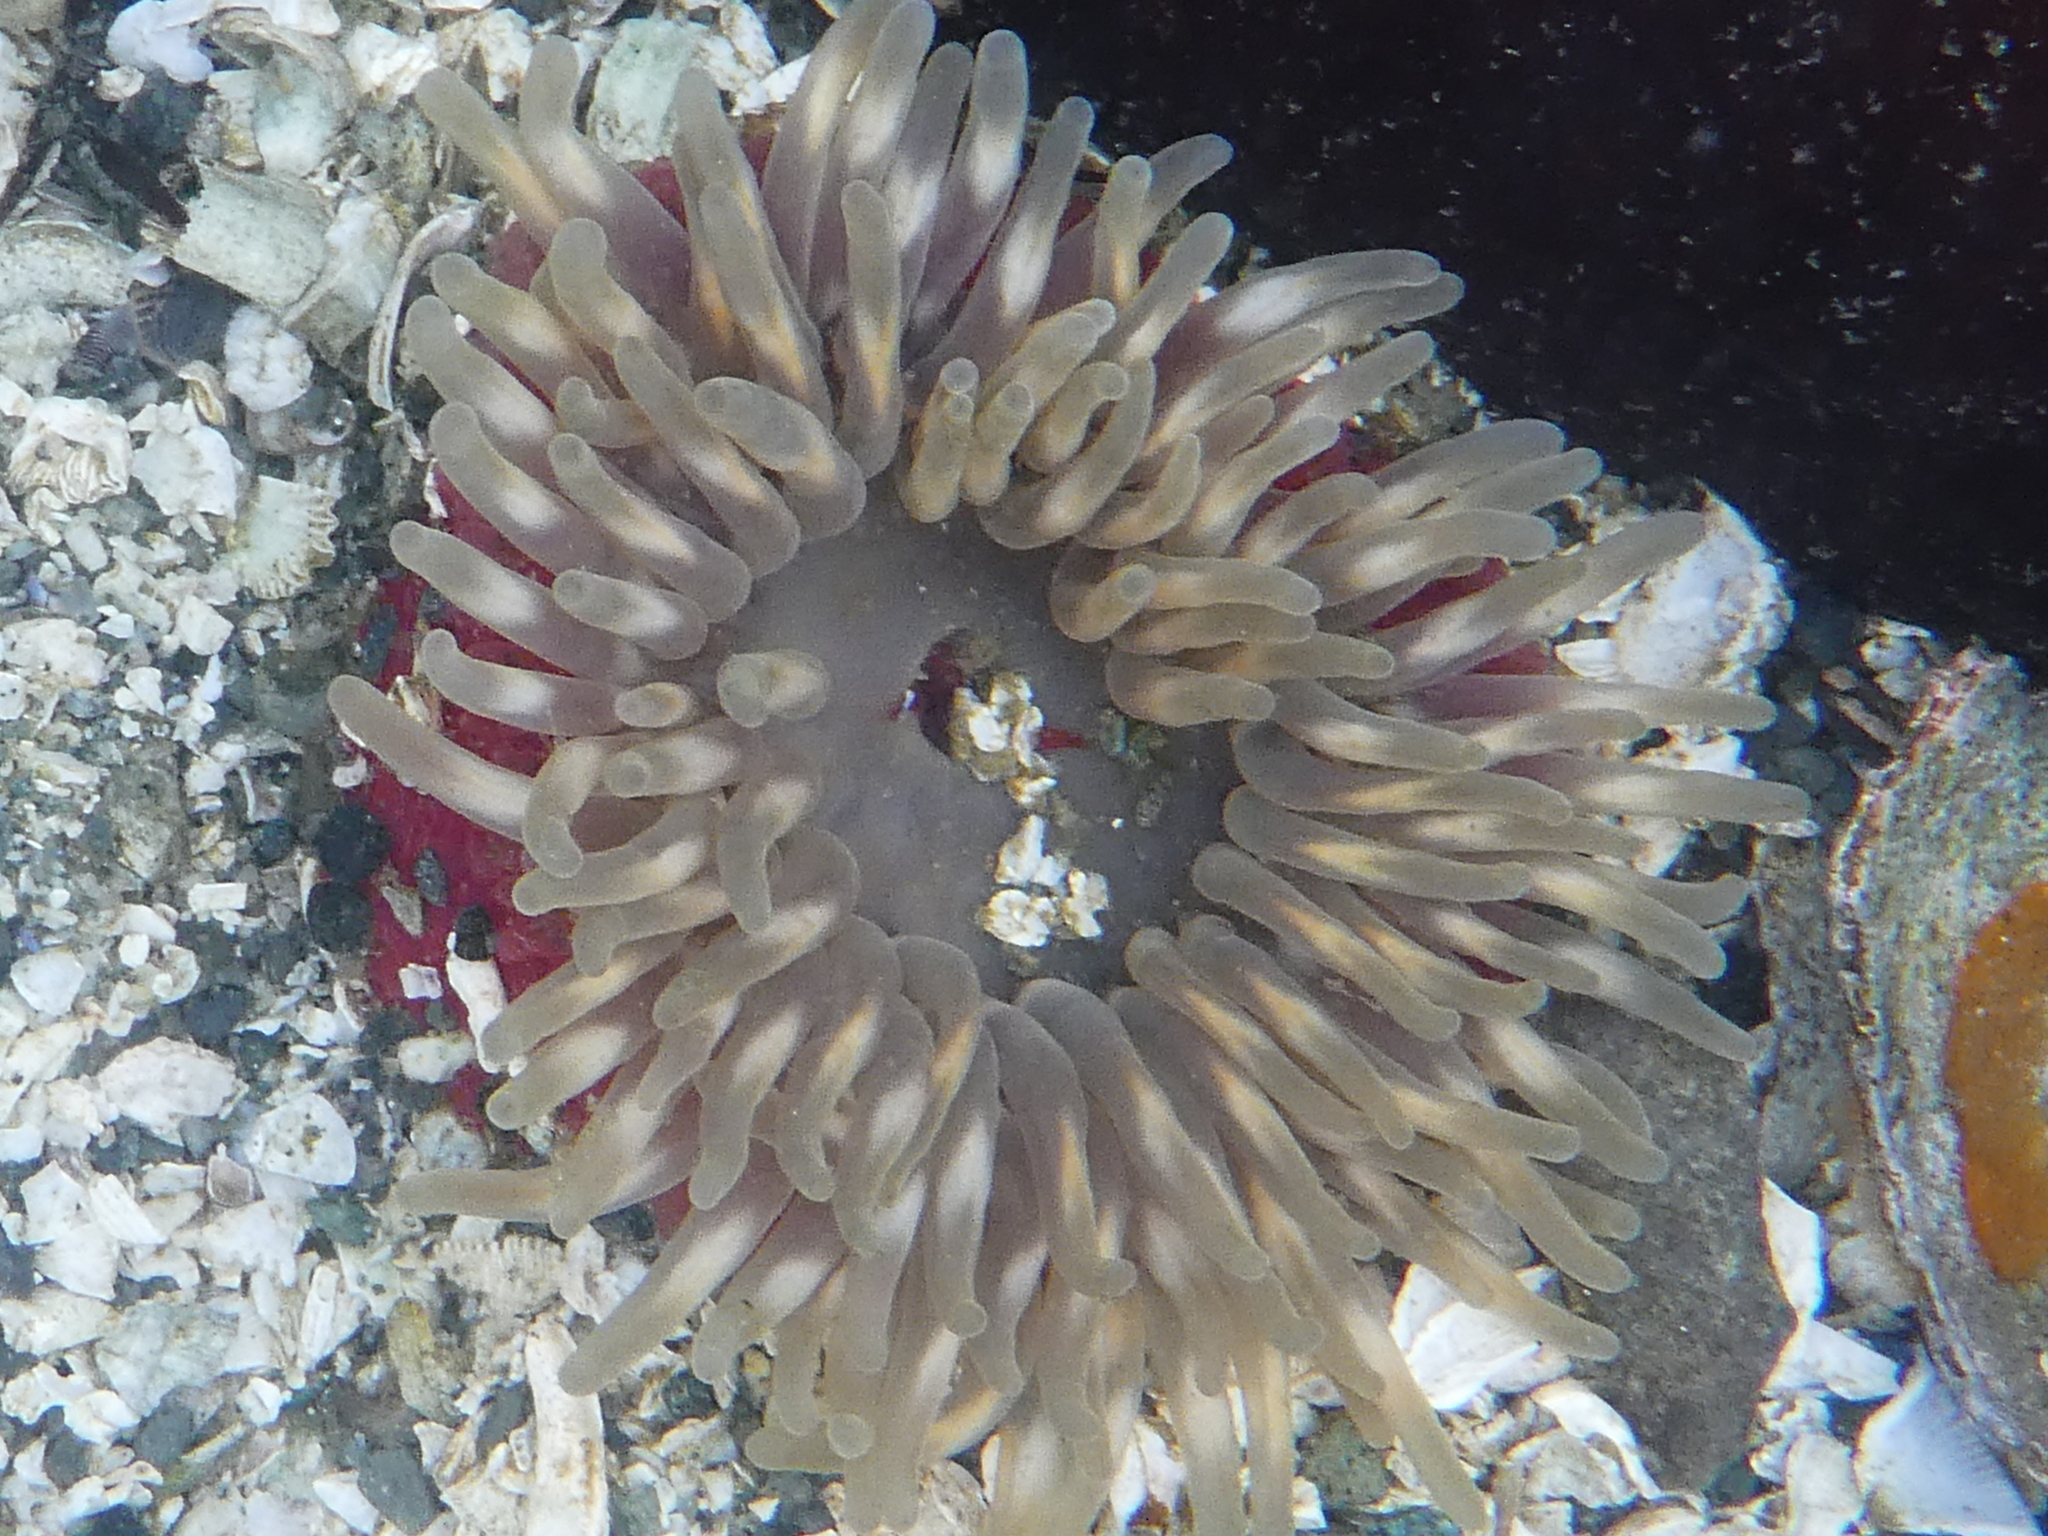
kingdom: Animalia
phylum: Cnidaria
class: Anthozoa
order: Actiniaria
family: Actiniidae
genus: Urticina
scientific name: Urticina clandestina
